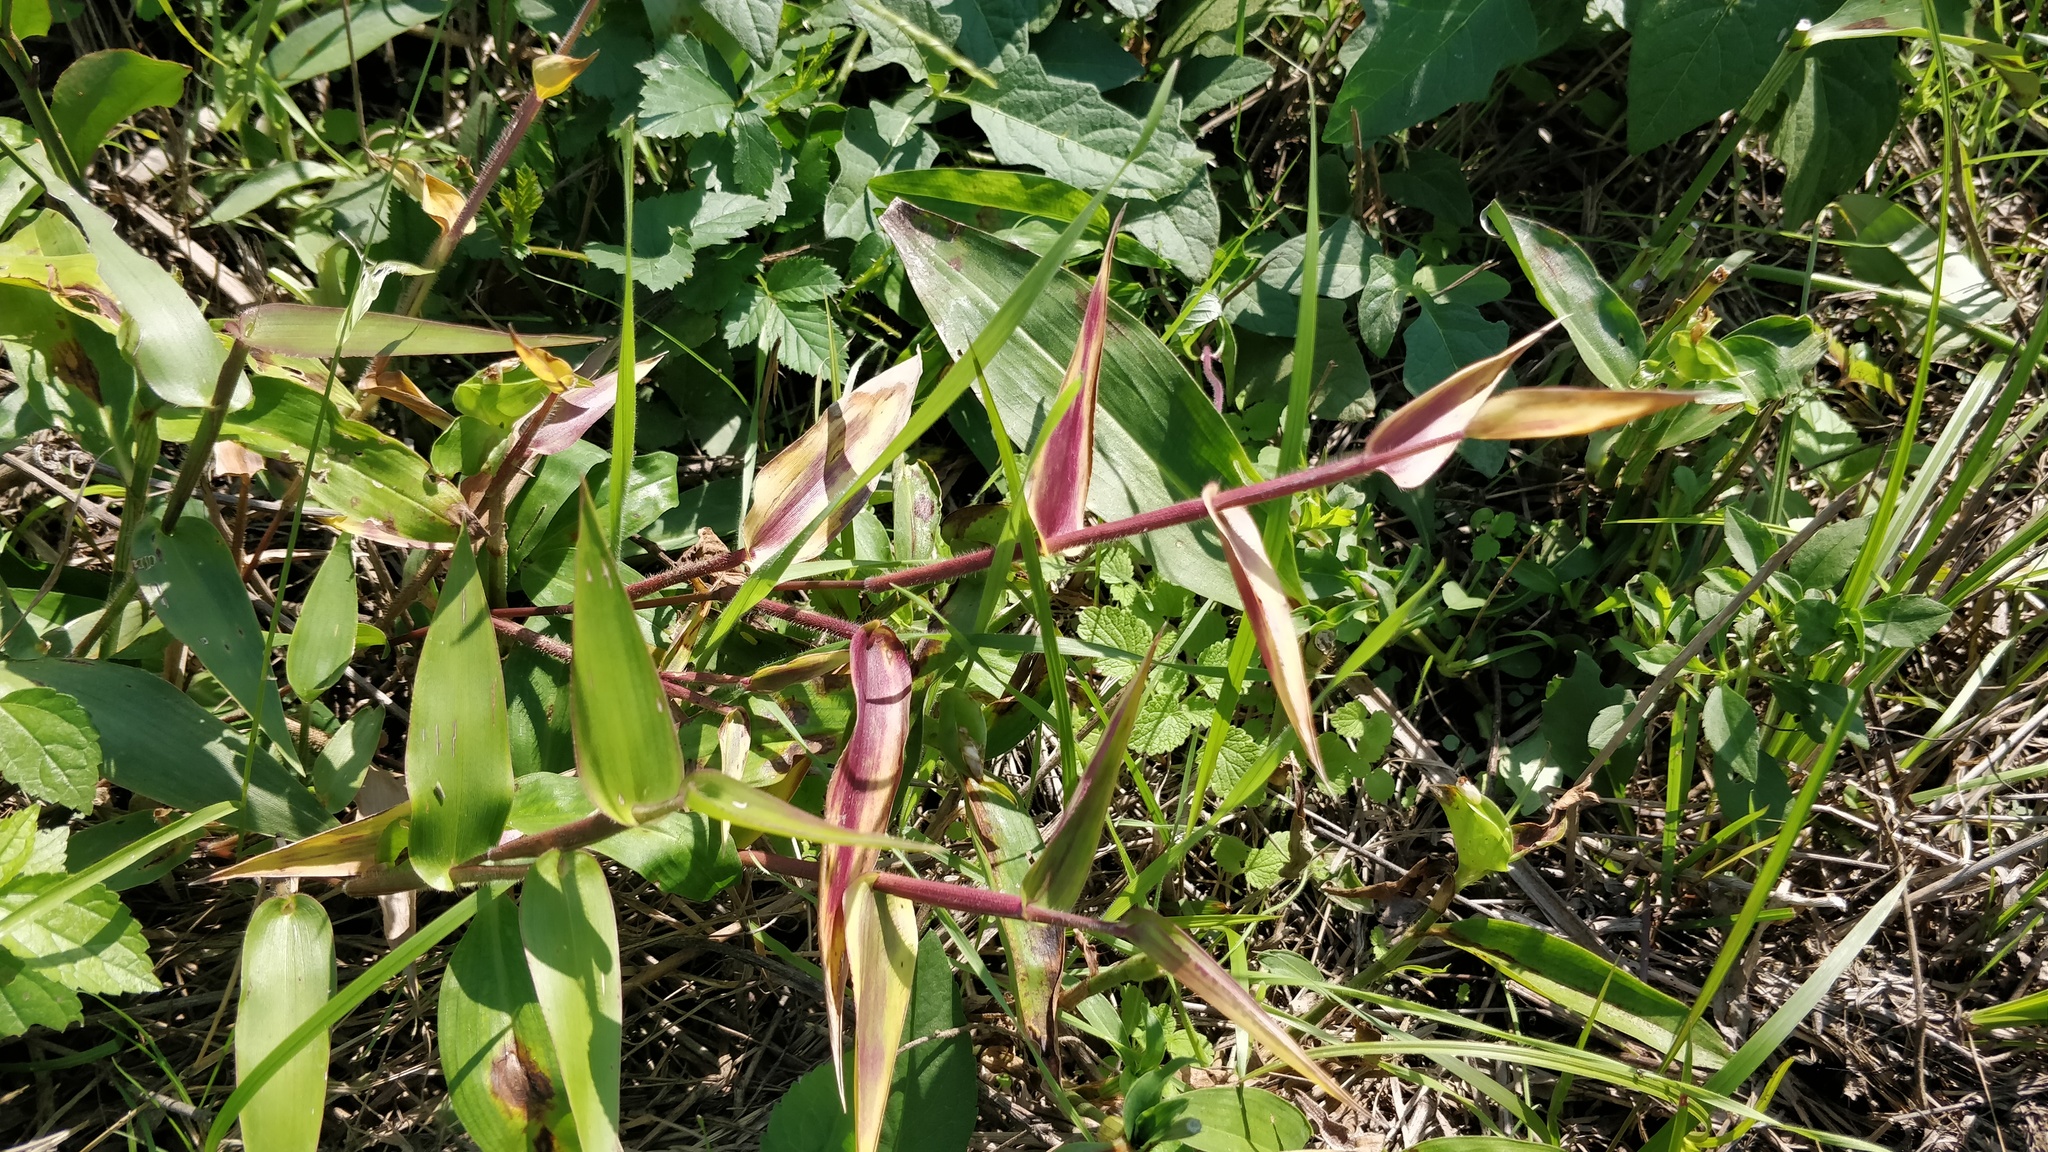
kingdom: Plantae
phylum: Tracheophyta
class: Liliopsida
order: Poales
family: Poaceae
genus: Dichanthelium
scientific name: Dichanthelium clandestinum
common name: Deer-tongue grass
